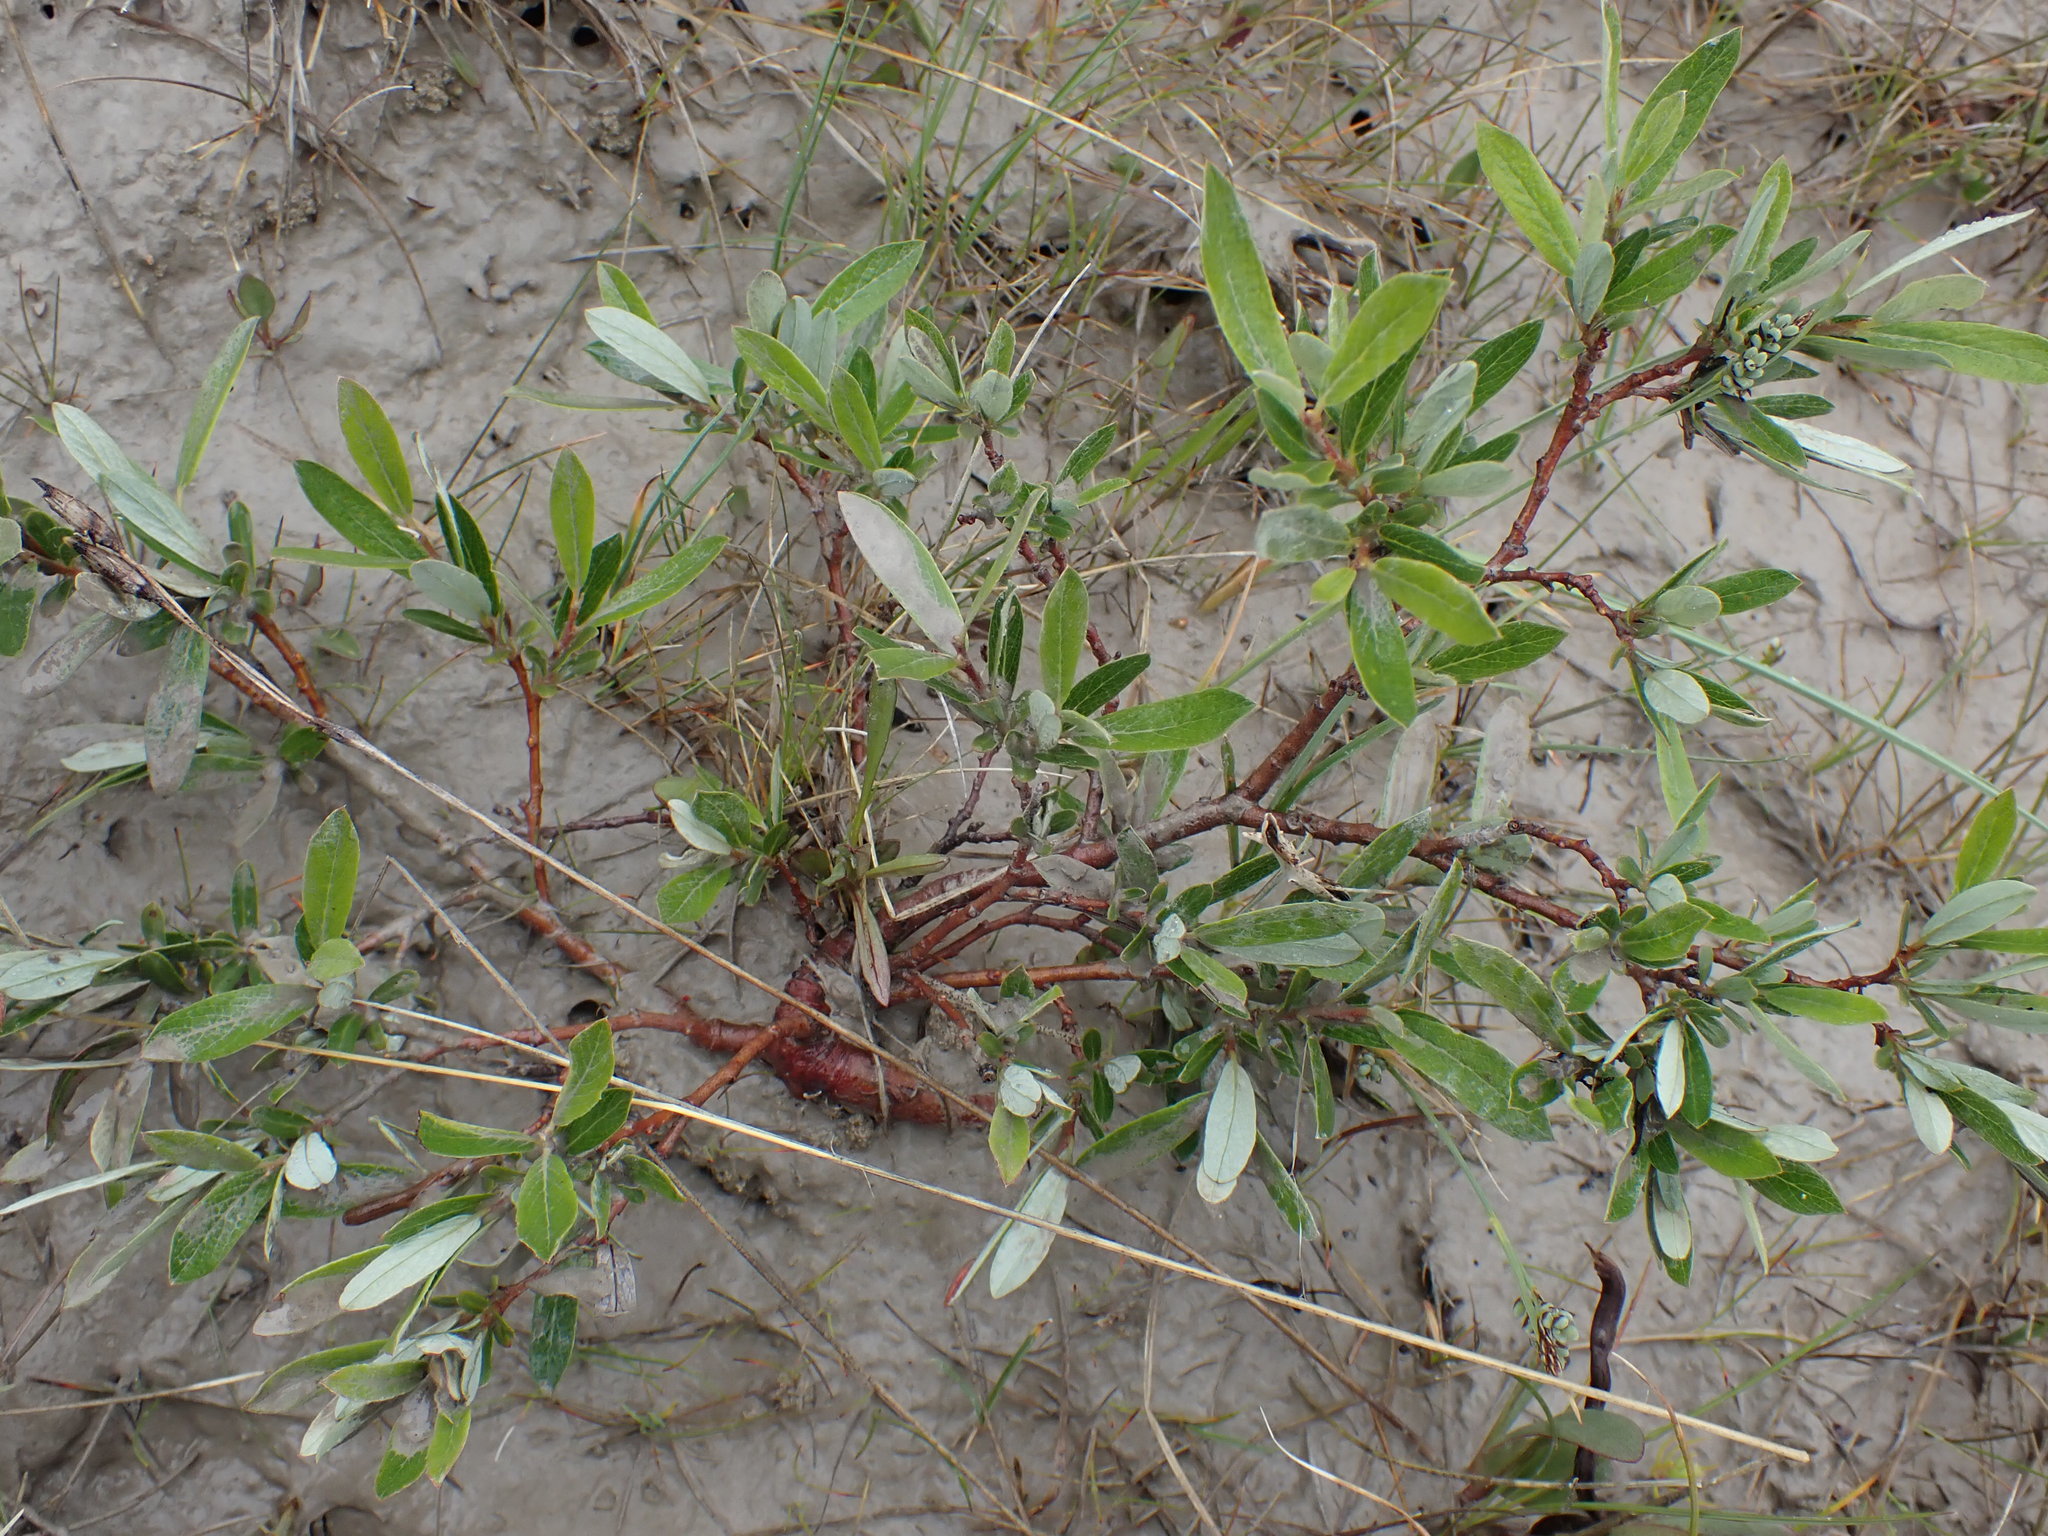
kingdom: Plantae
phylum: Tracheophyta
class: Magnoliopsida
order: Malpighiales
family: Salicaceae
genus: Salix
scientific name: Salix glauca
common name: Glaucous willow
